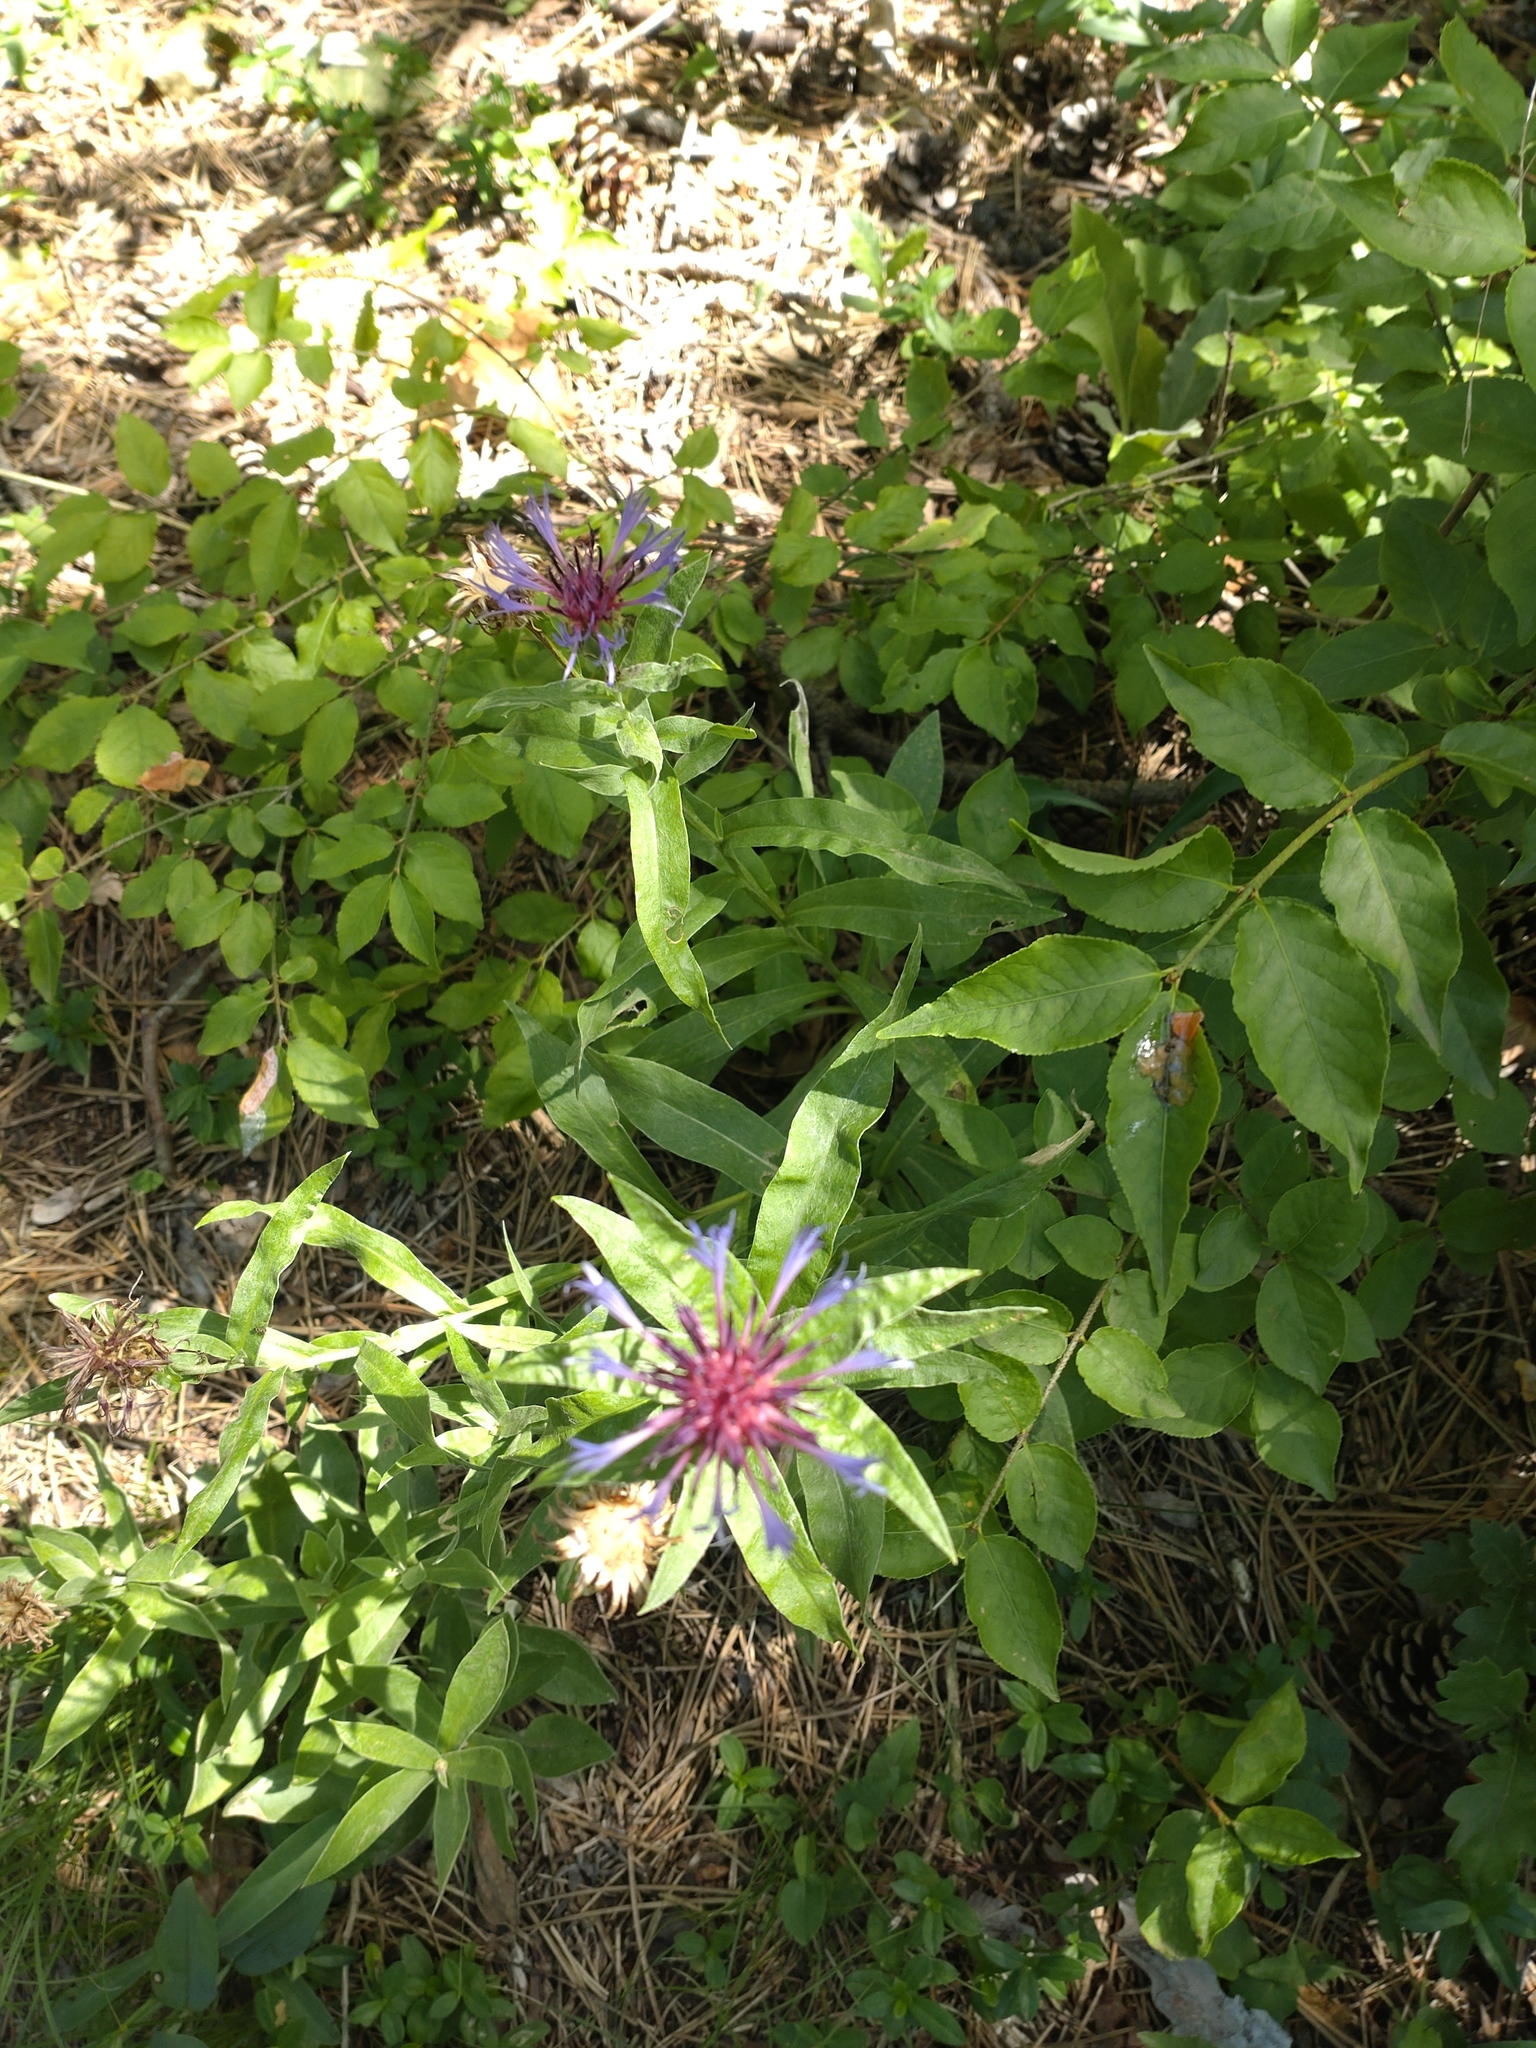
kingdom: Plantae
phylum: Tracheophyta
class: Magnoliopsida
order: Asterales
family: Asteraceae
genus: Centaurea
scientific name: Centaurea triumfettii
